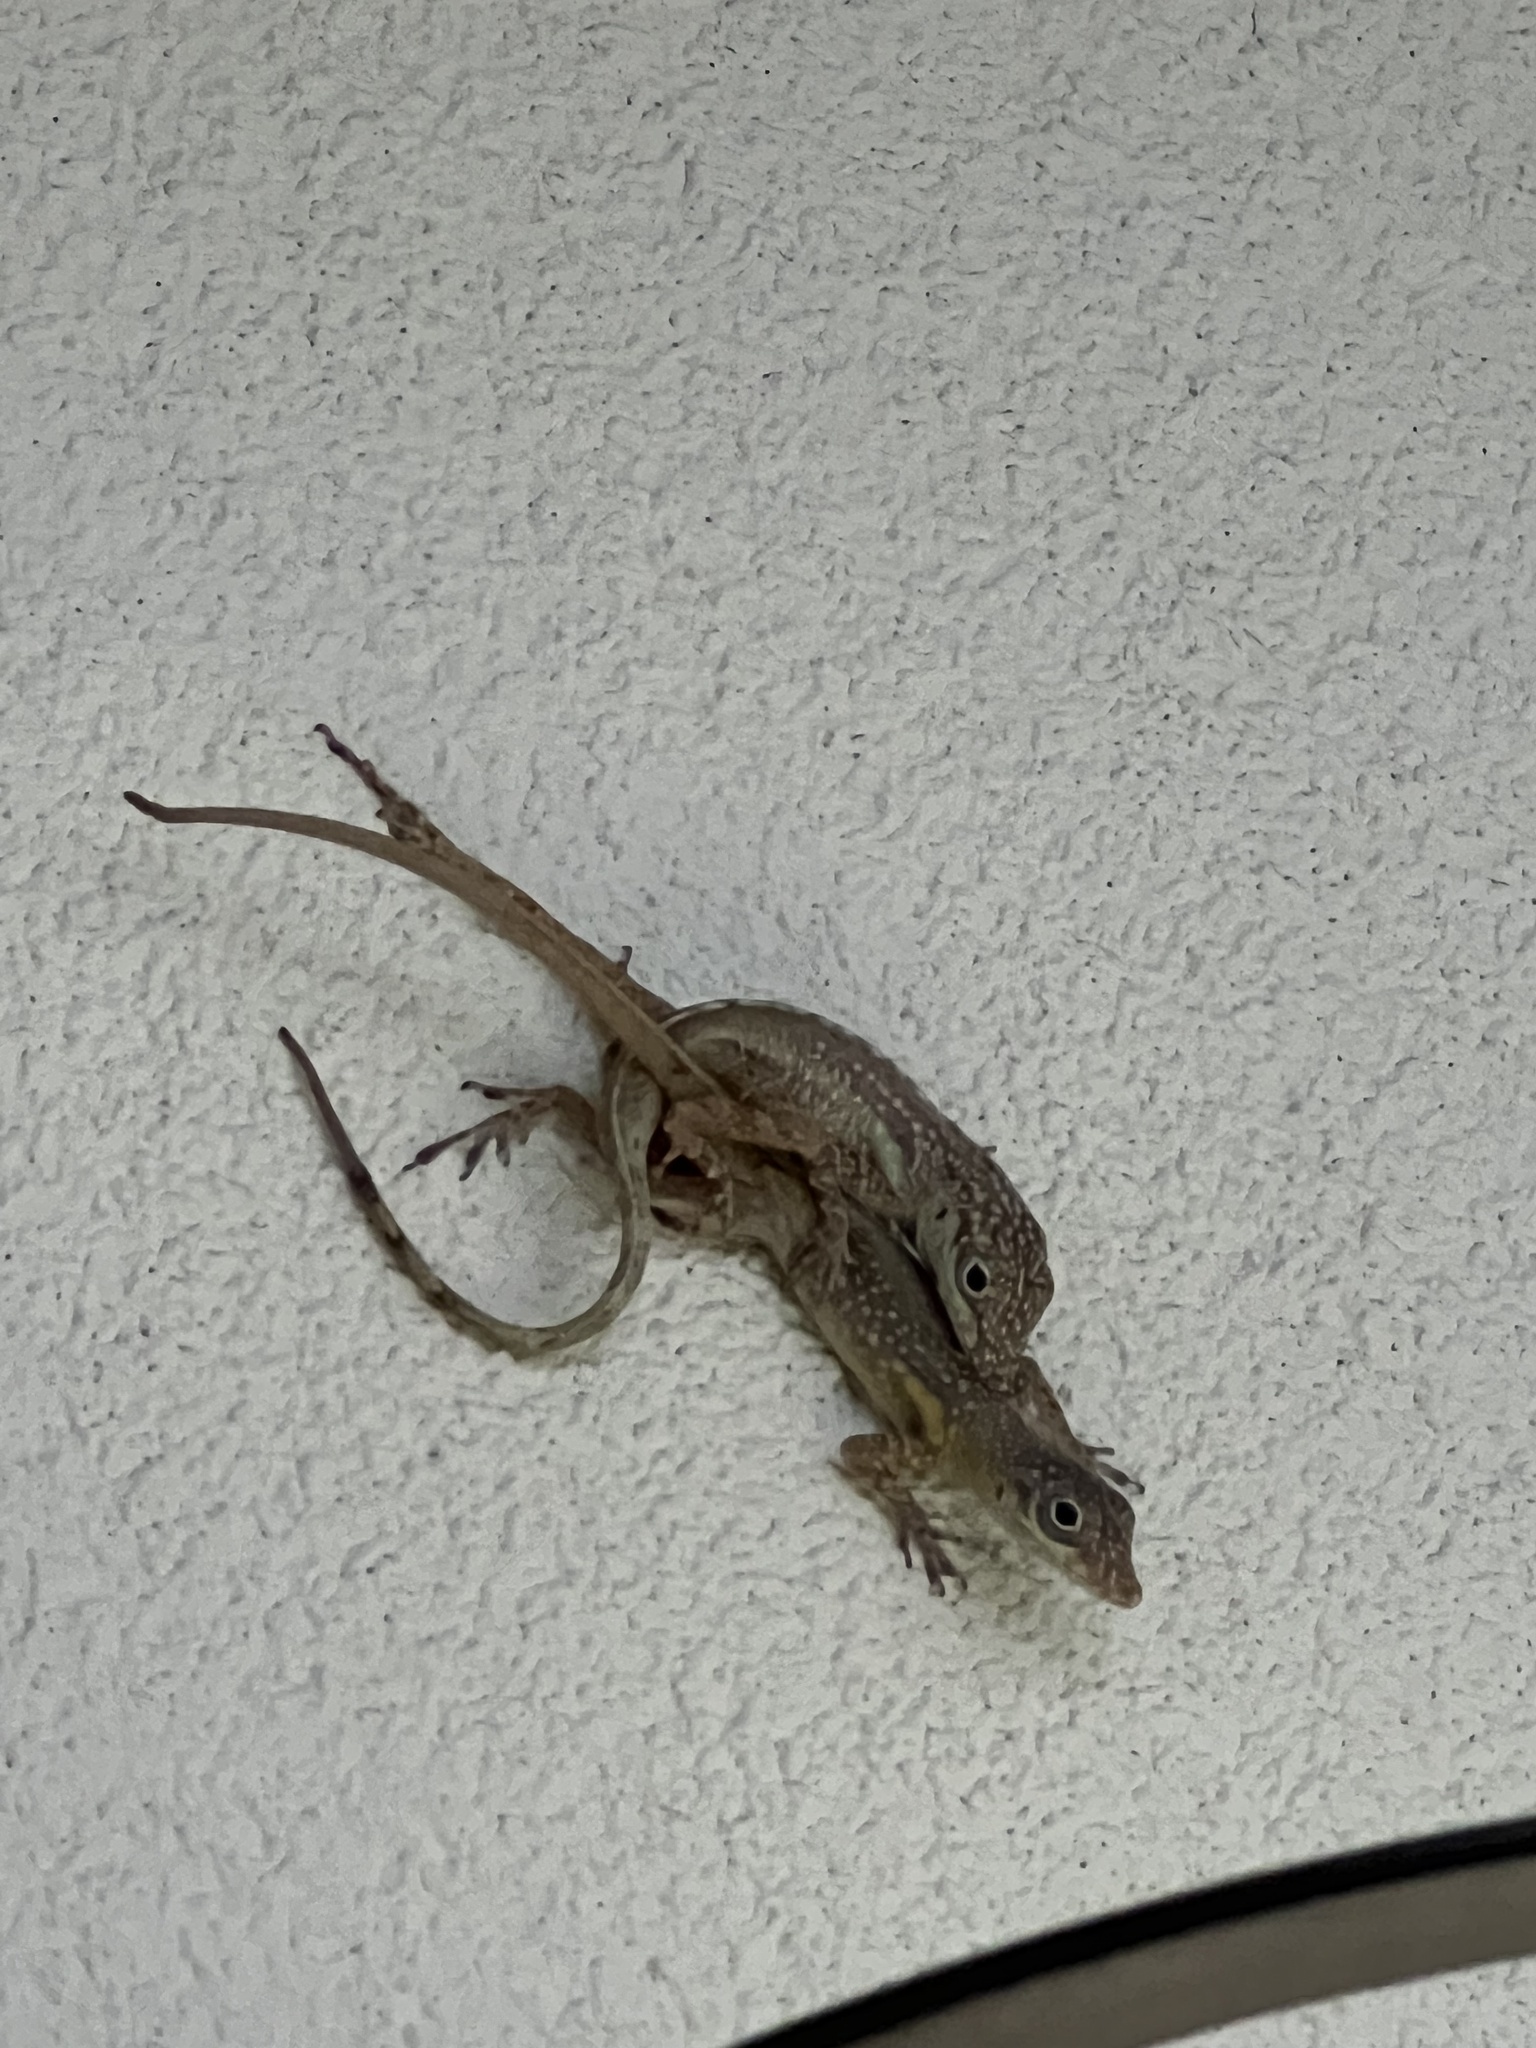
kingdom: Animalia
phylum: Chordata
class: Squamata
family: Dactyloidae
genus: Anolis
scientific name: Anolis conspersus
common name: Grand cayman anole
